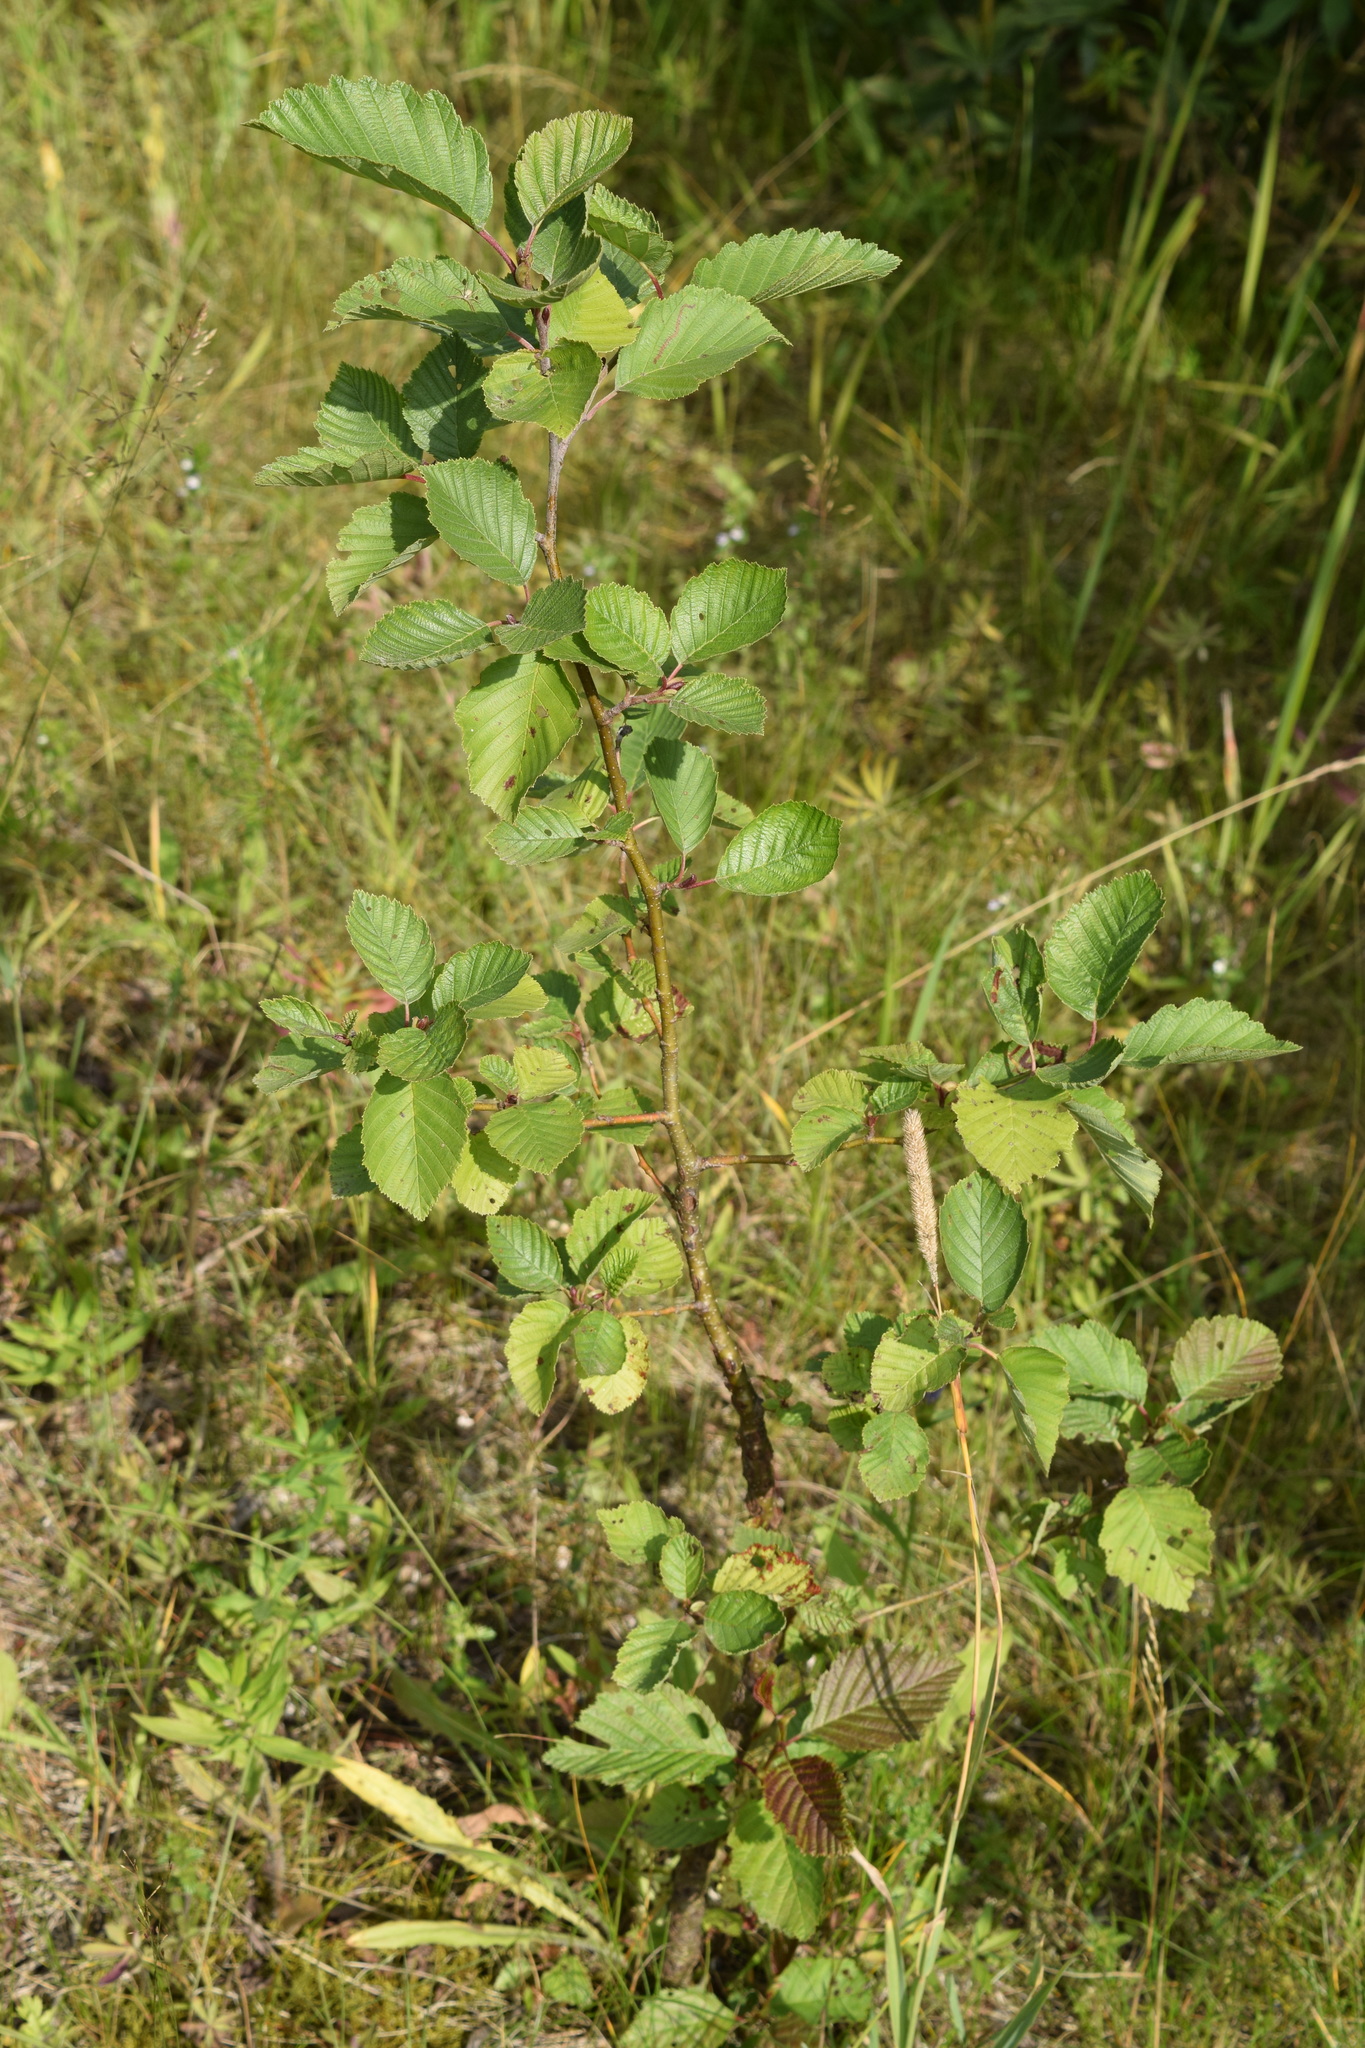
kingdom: Plantae
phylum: Tracheophyta
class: Magnoliopsida
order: Fagales
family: Betulaceae
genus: Alnus
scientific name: Alnus incana
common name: Grey alder
